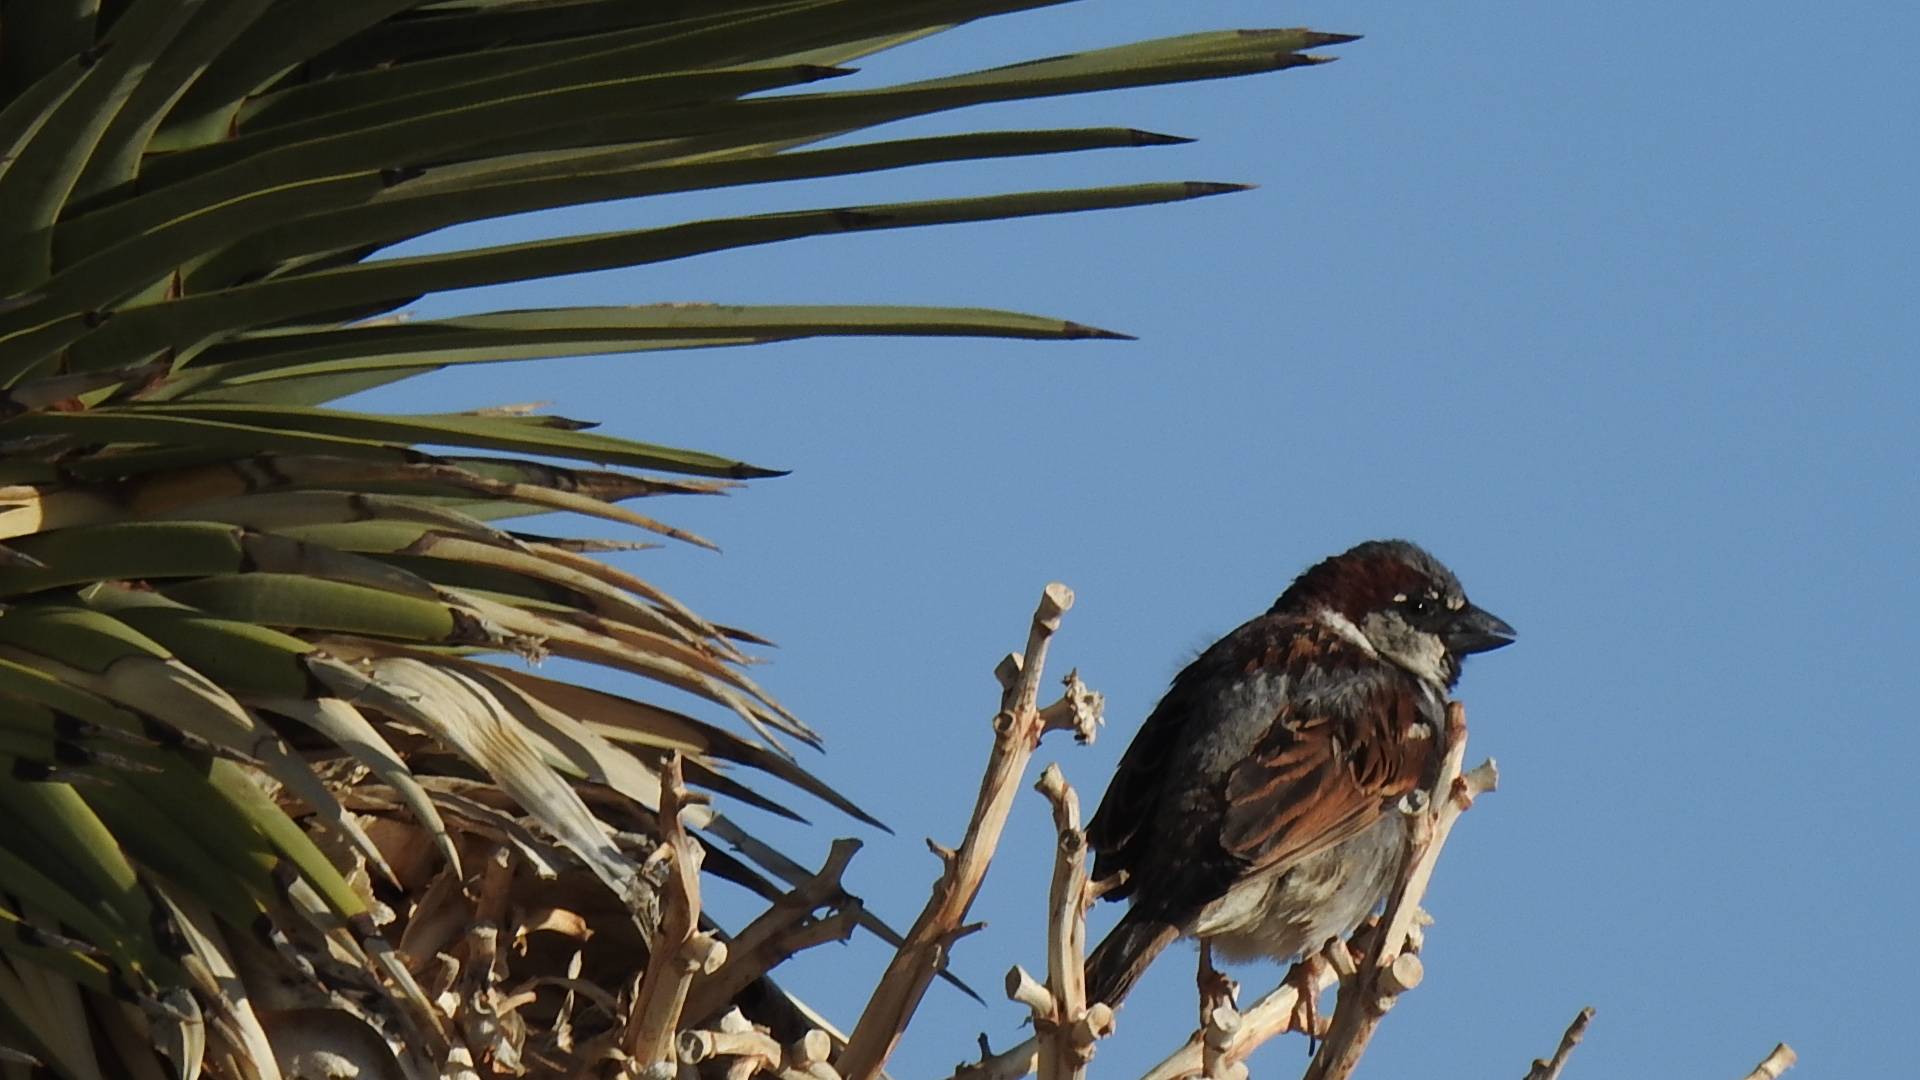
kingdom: Animalia
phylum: Chordata
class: Aves
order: Passeriformes
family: Passeridae
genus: Passer
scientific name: Passer domesticus
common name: House sparrow
